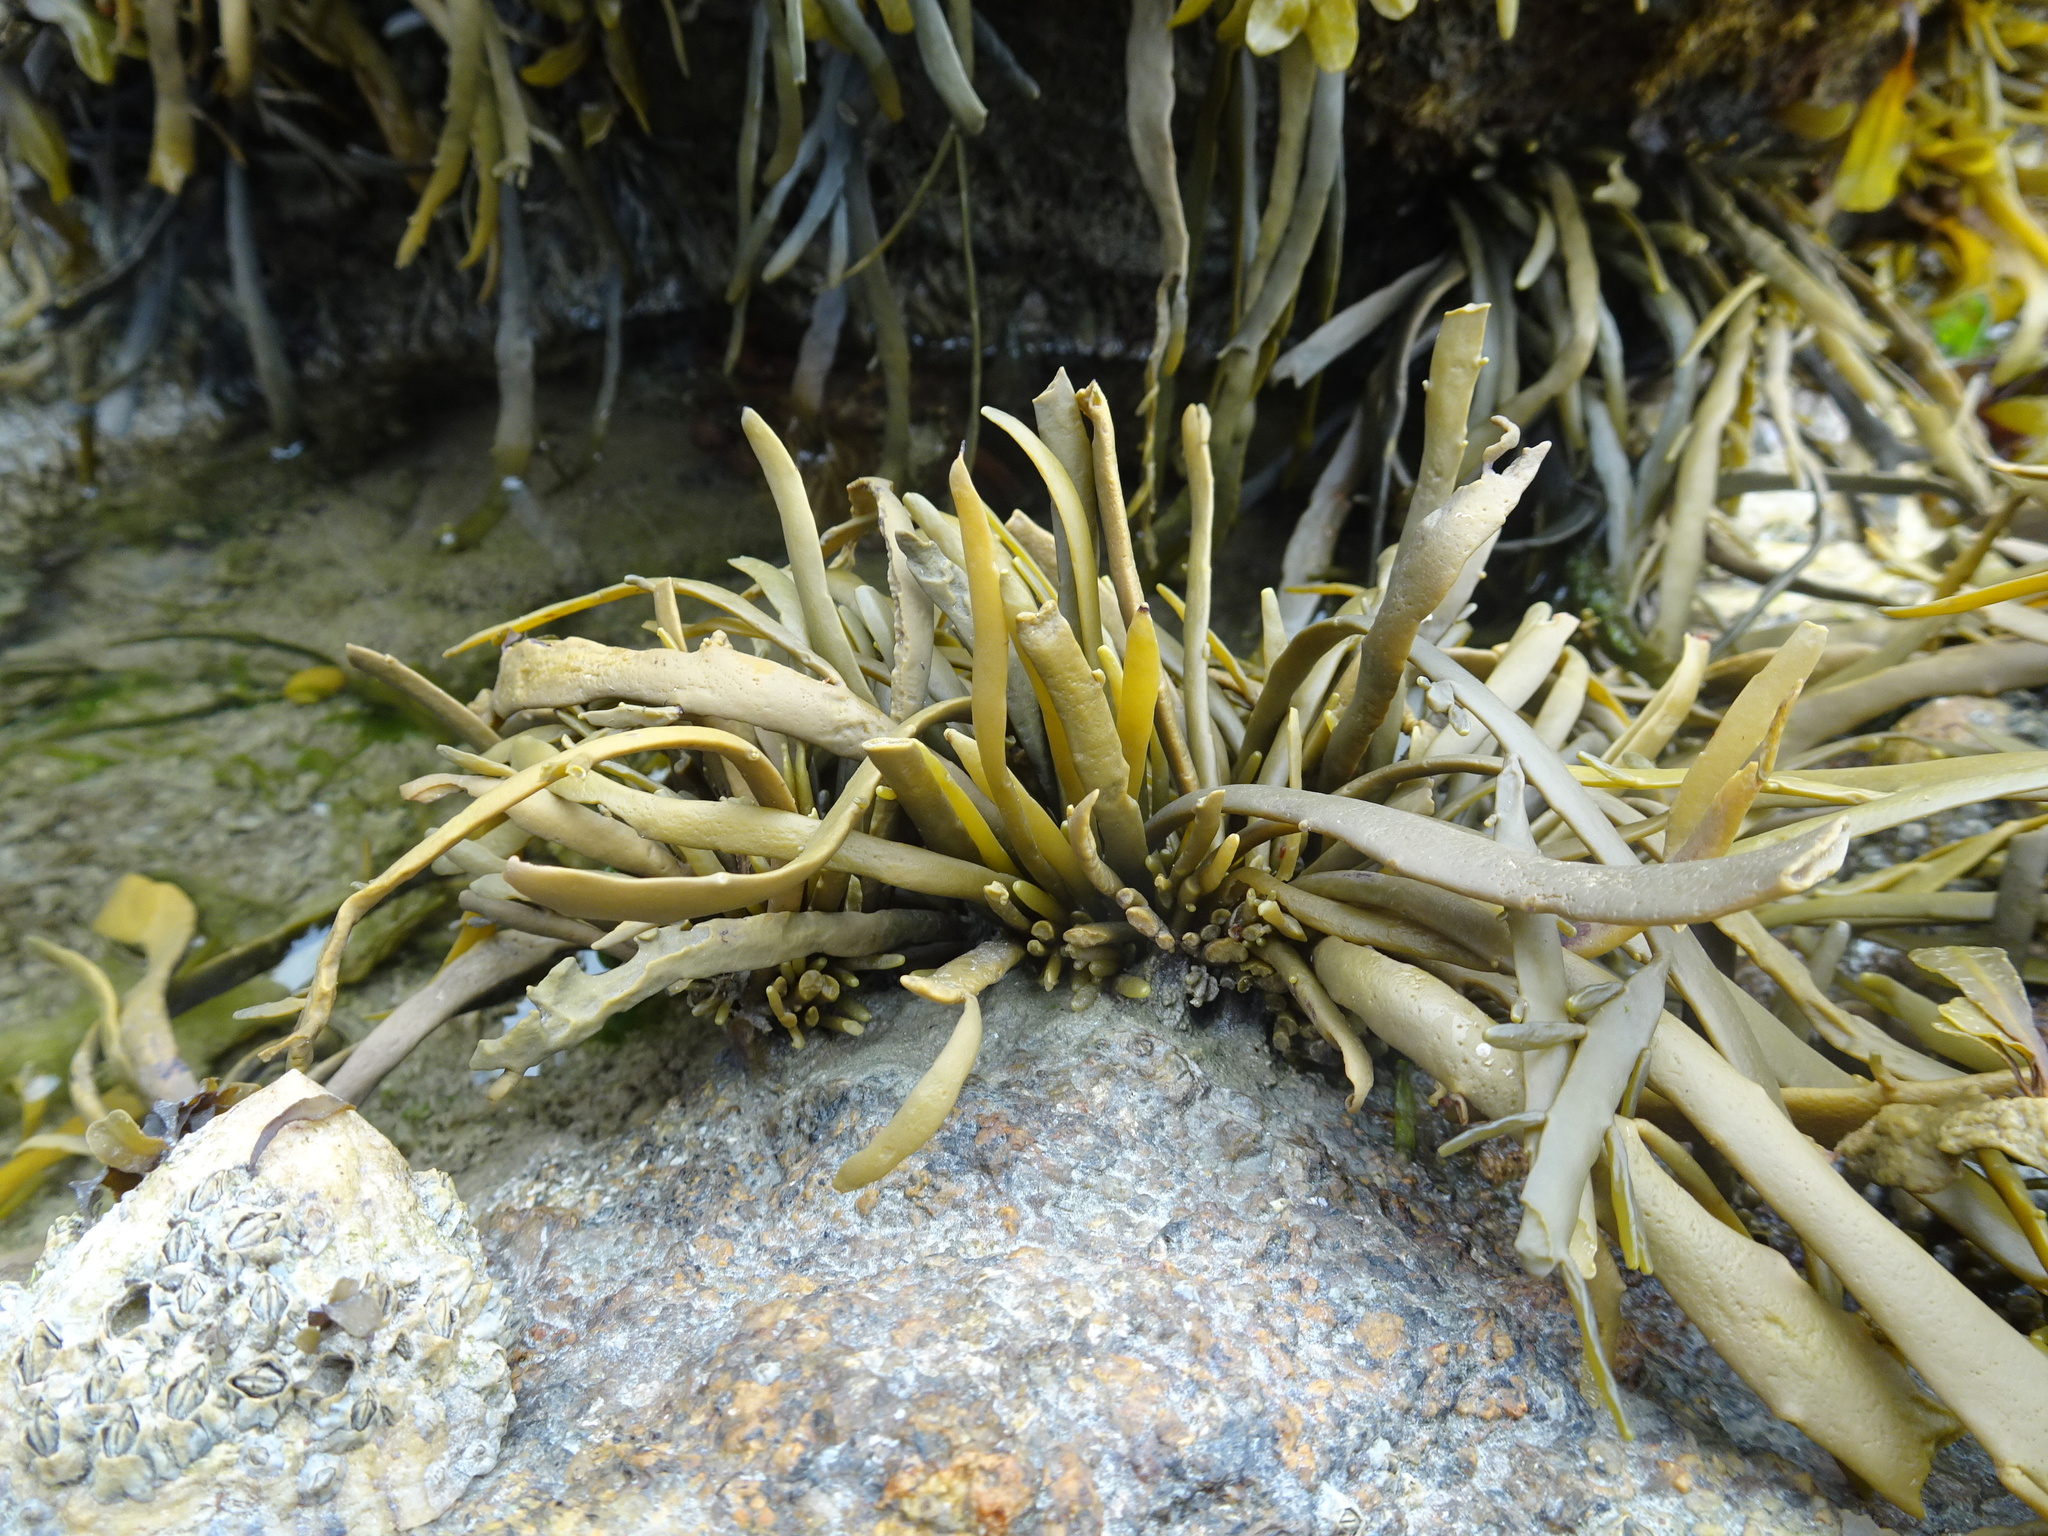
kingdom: Chromista
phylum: Ochrophyta
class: Phaeophyceae
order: Fucales
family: Fucaceae
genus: Ascophyllum
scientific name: Ascophyllum nodosum
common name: Knotted wrack
